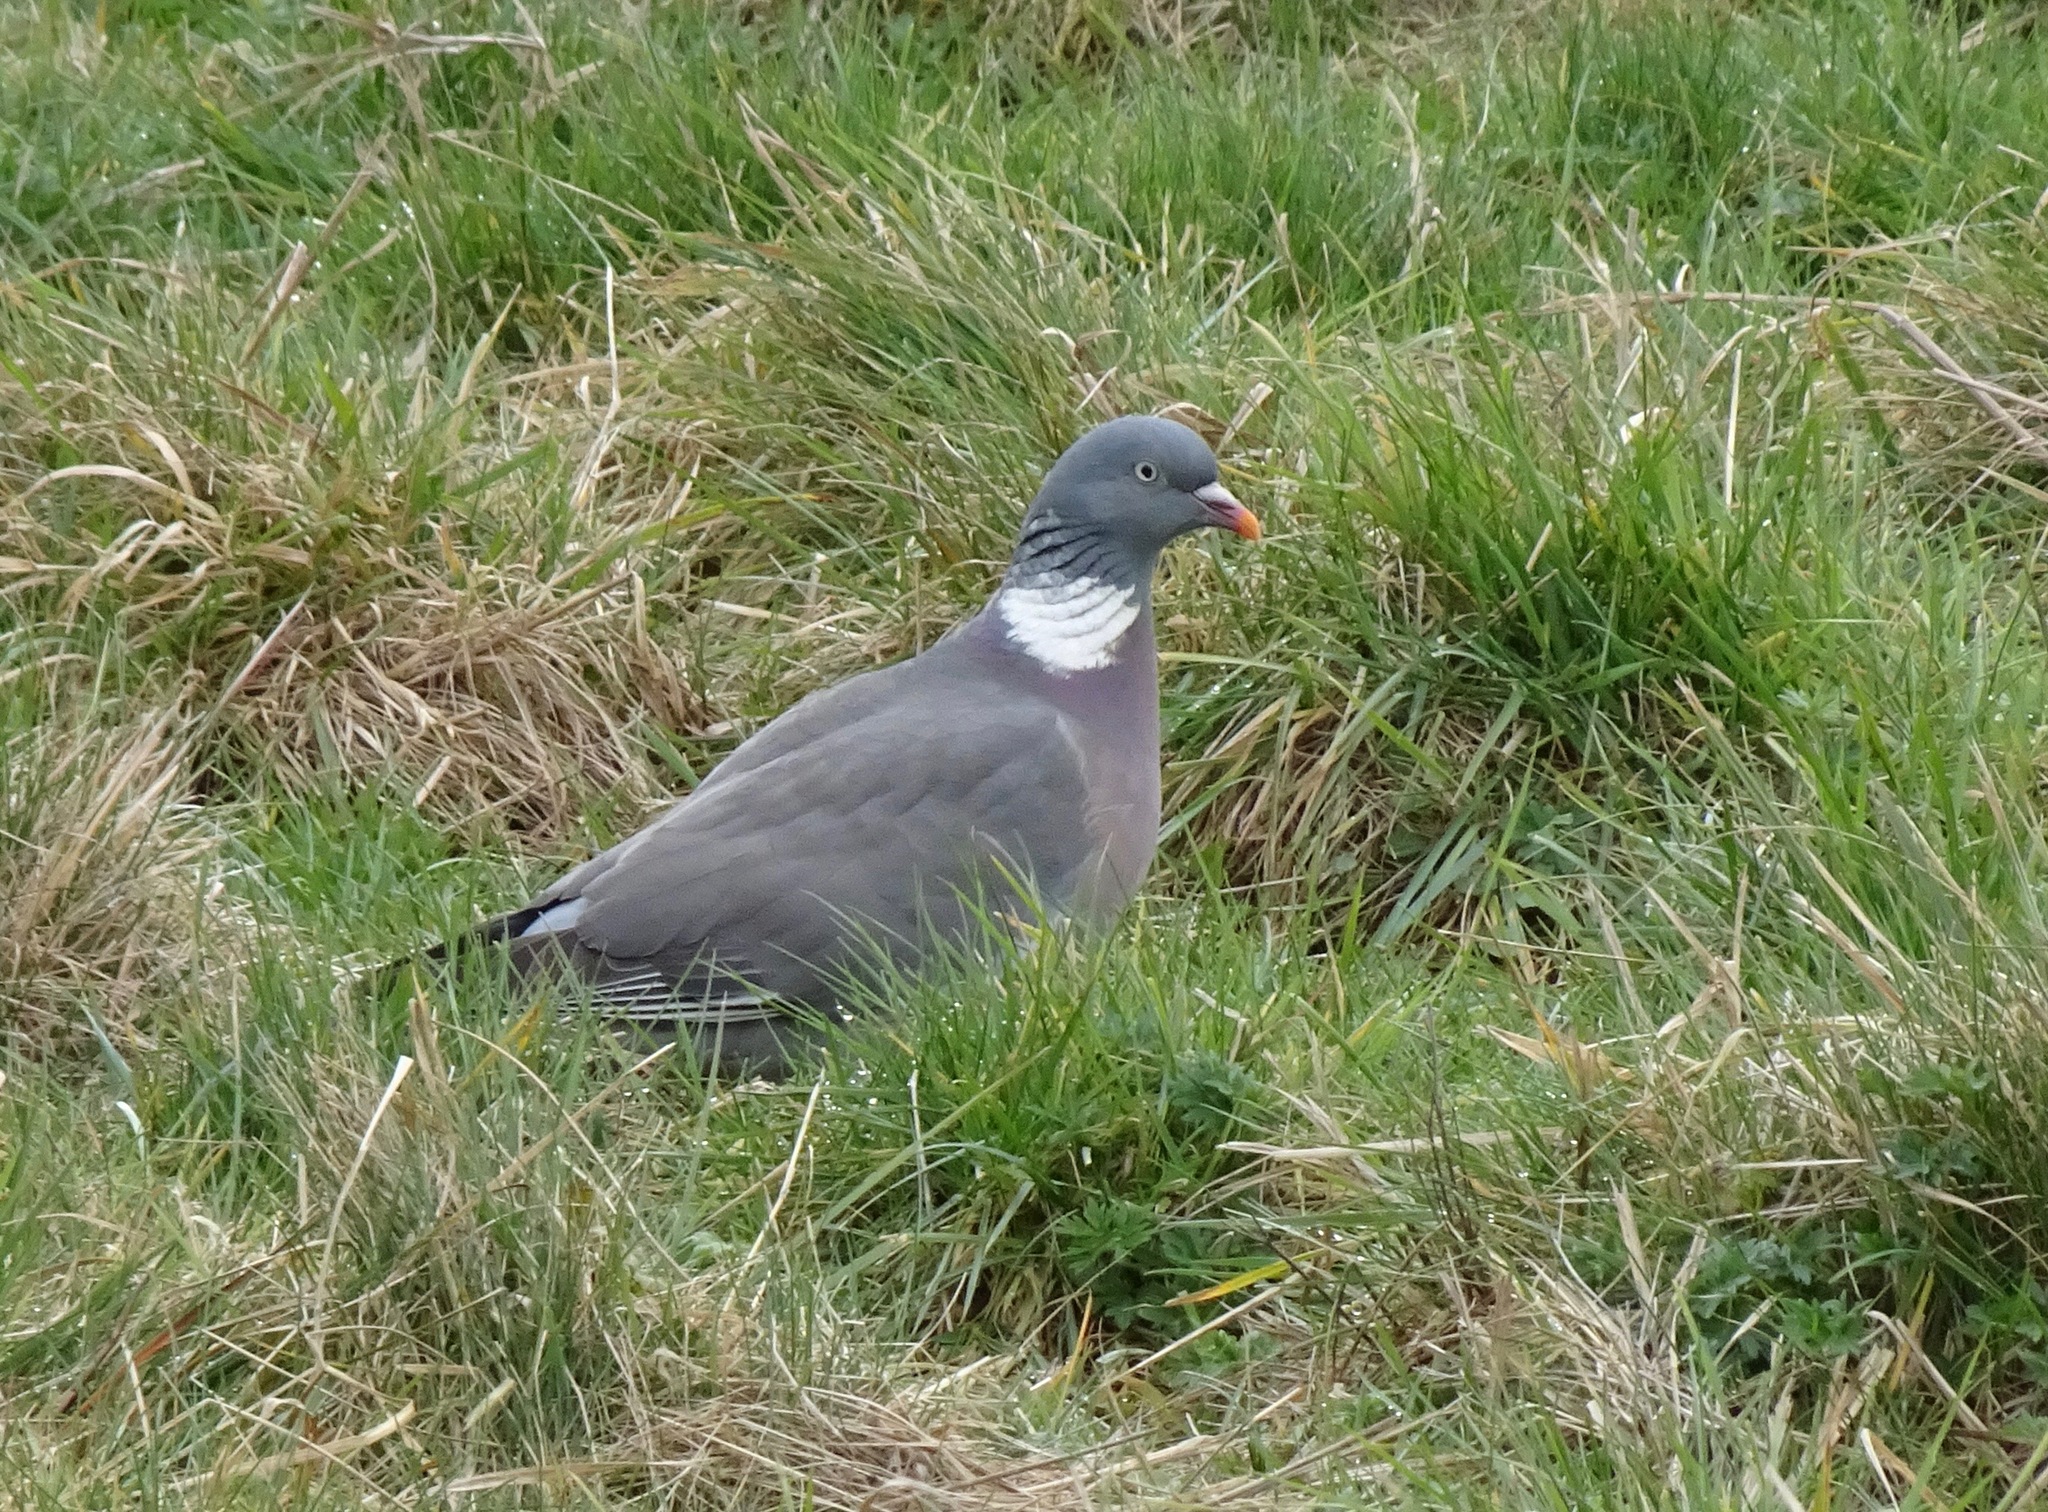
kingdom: Animalia
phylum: Chordata
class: Aves
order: Columbiformes
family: Columbidae
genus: Columba
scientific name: Columba palumbus
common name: Common wood pigeon
